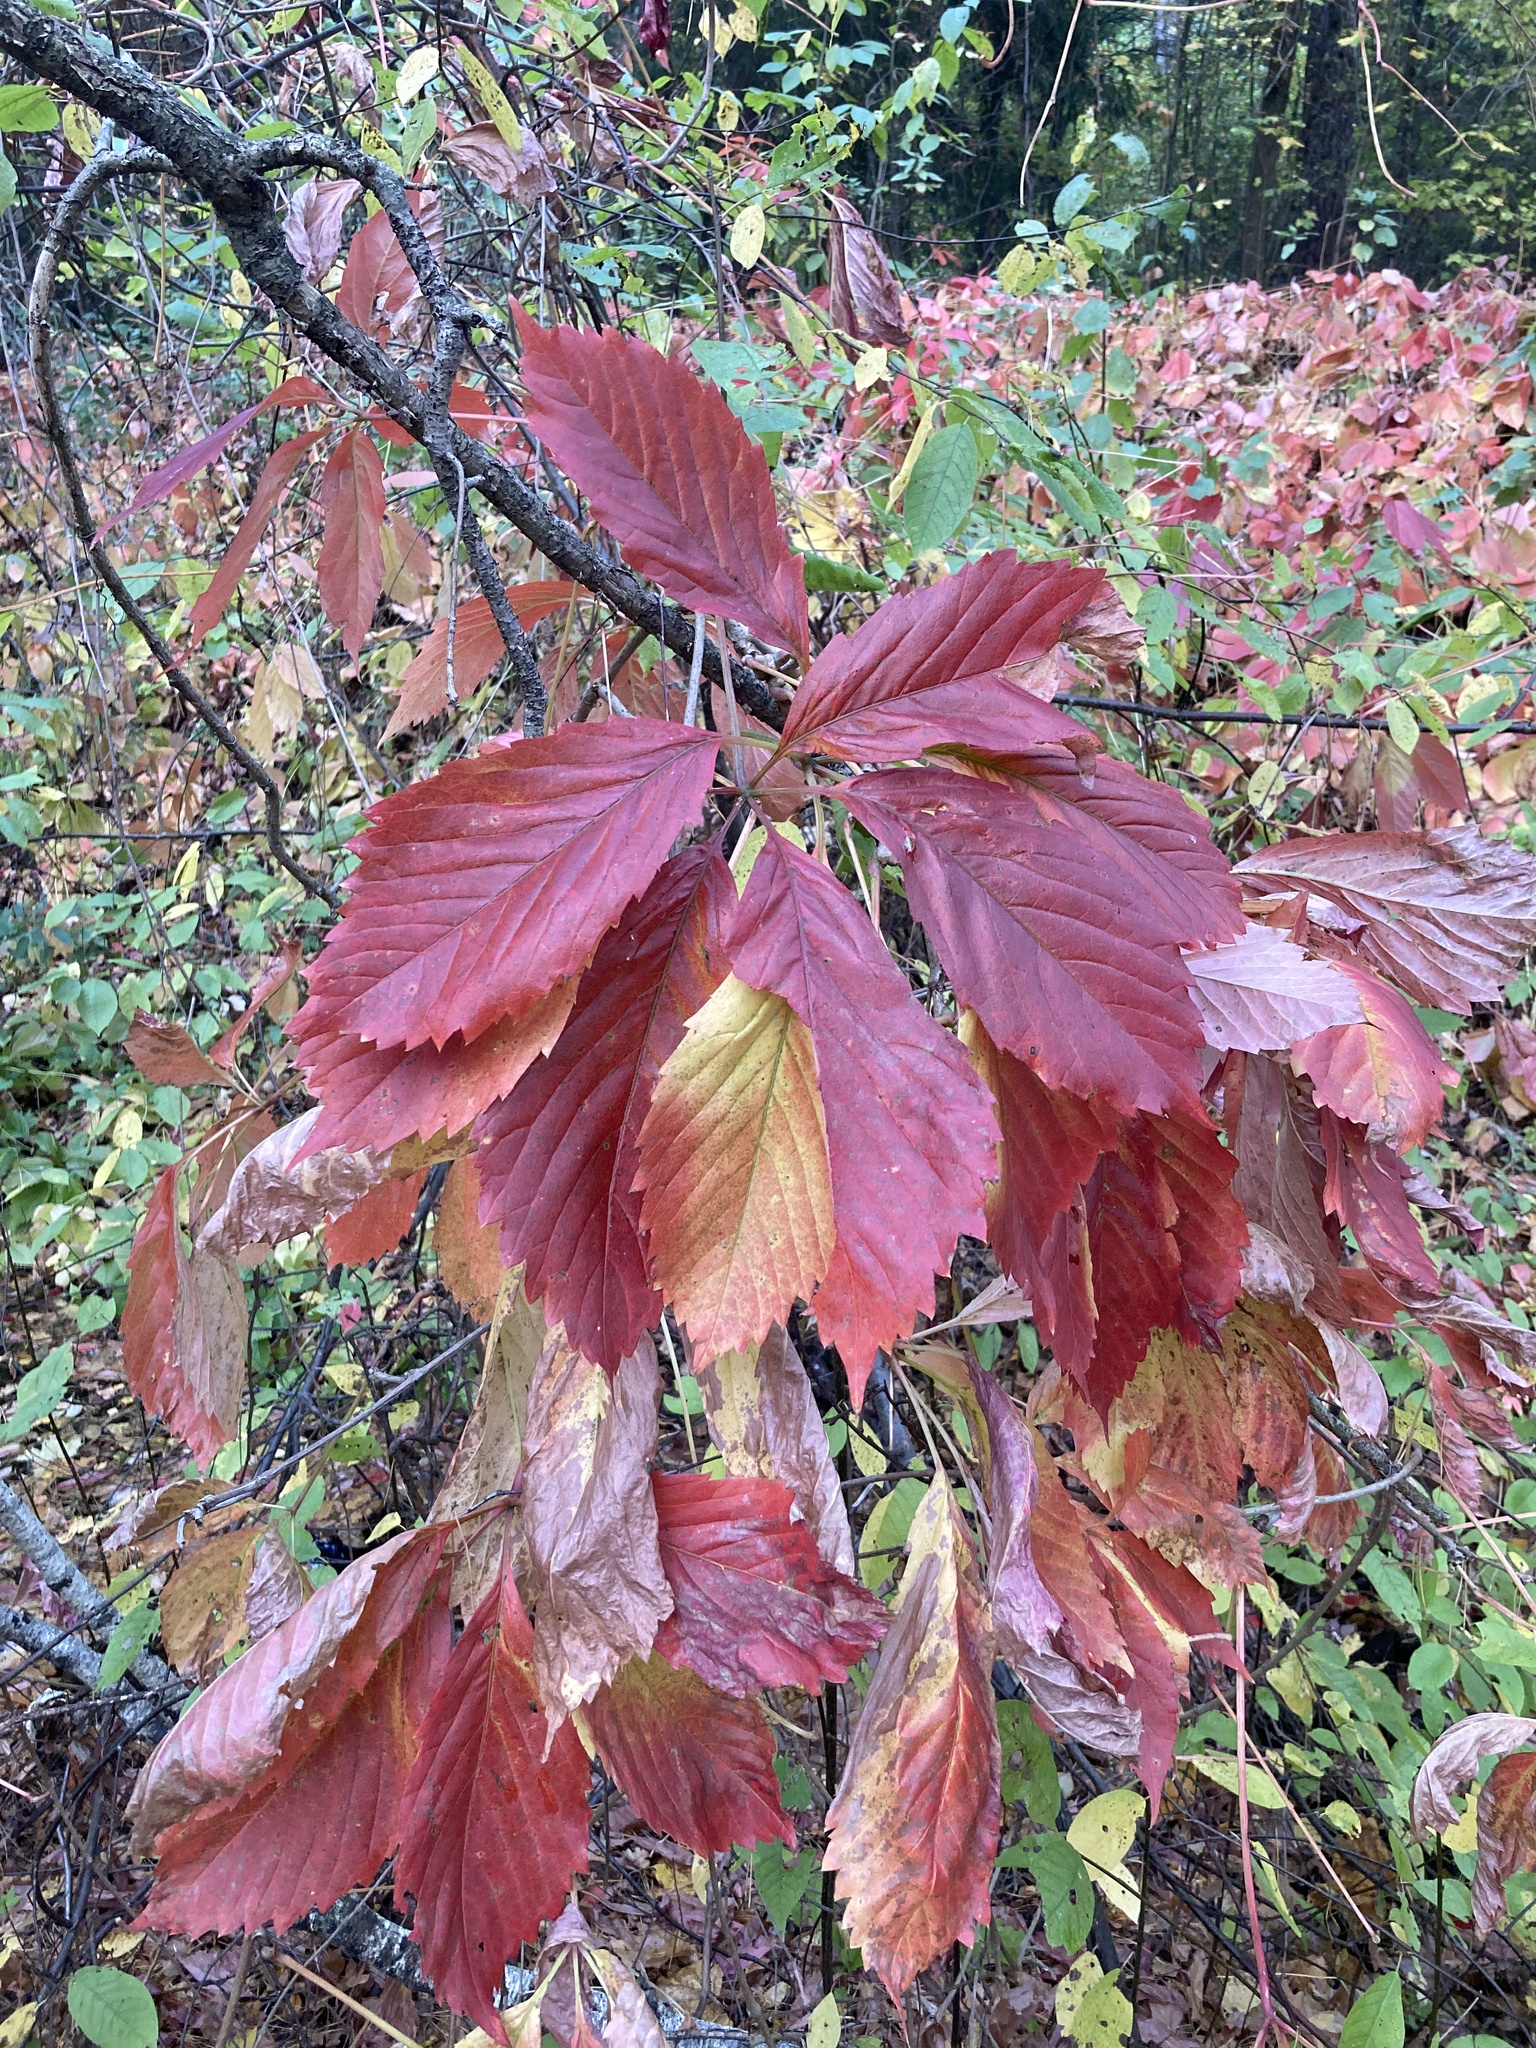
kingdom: Plantae
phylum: Tracheophyta
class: Magnoliopsida
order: Vitales
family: Vitaceae
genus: Parthenocissus
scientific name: Parthenocissus inserta
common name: False virginia-creeper
